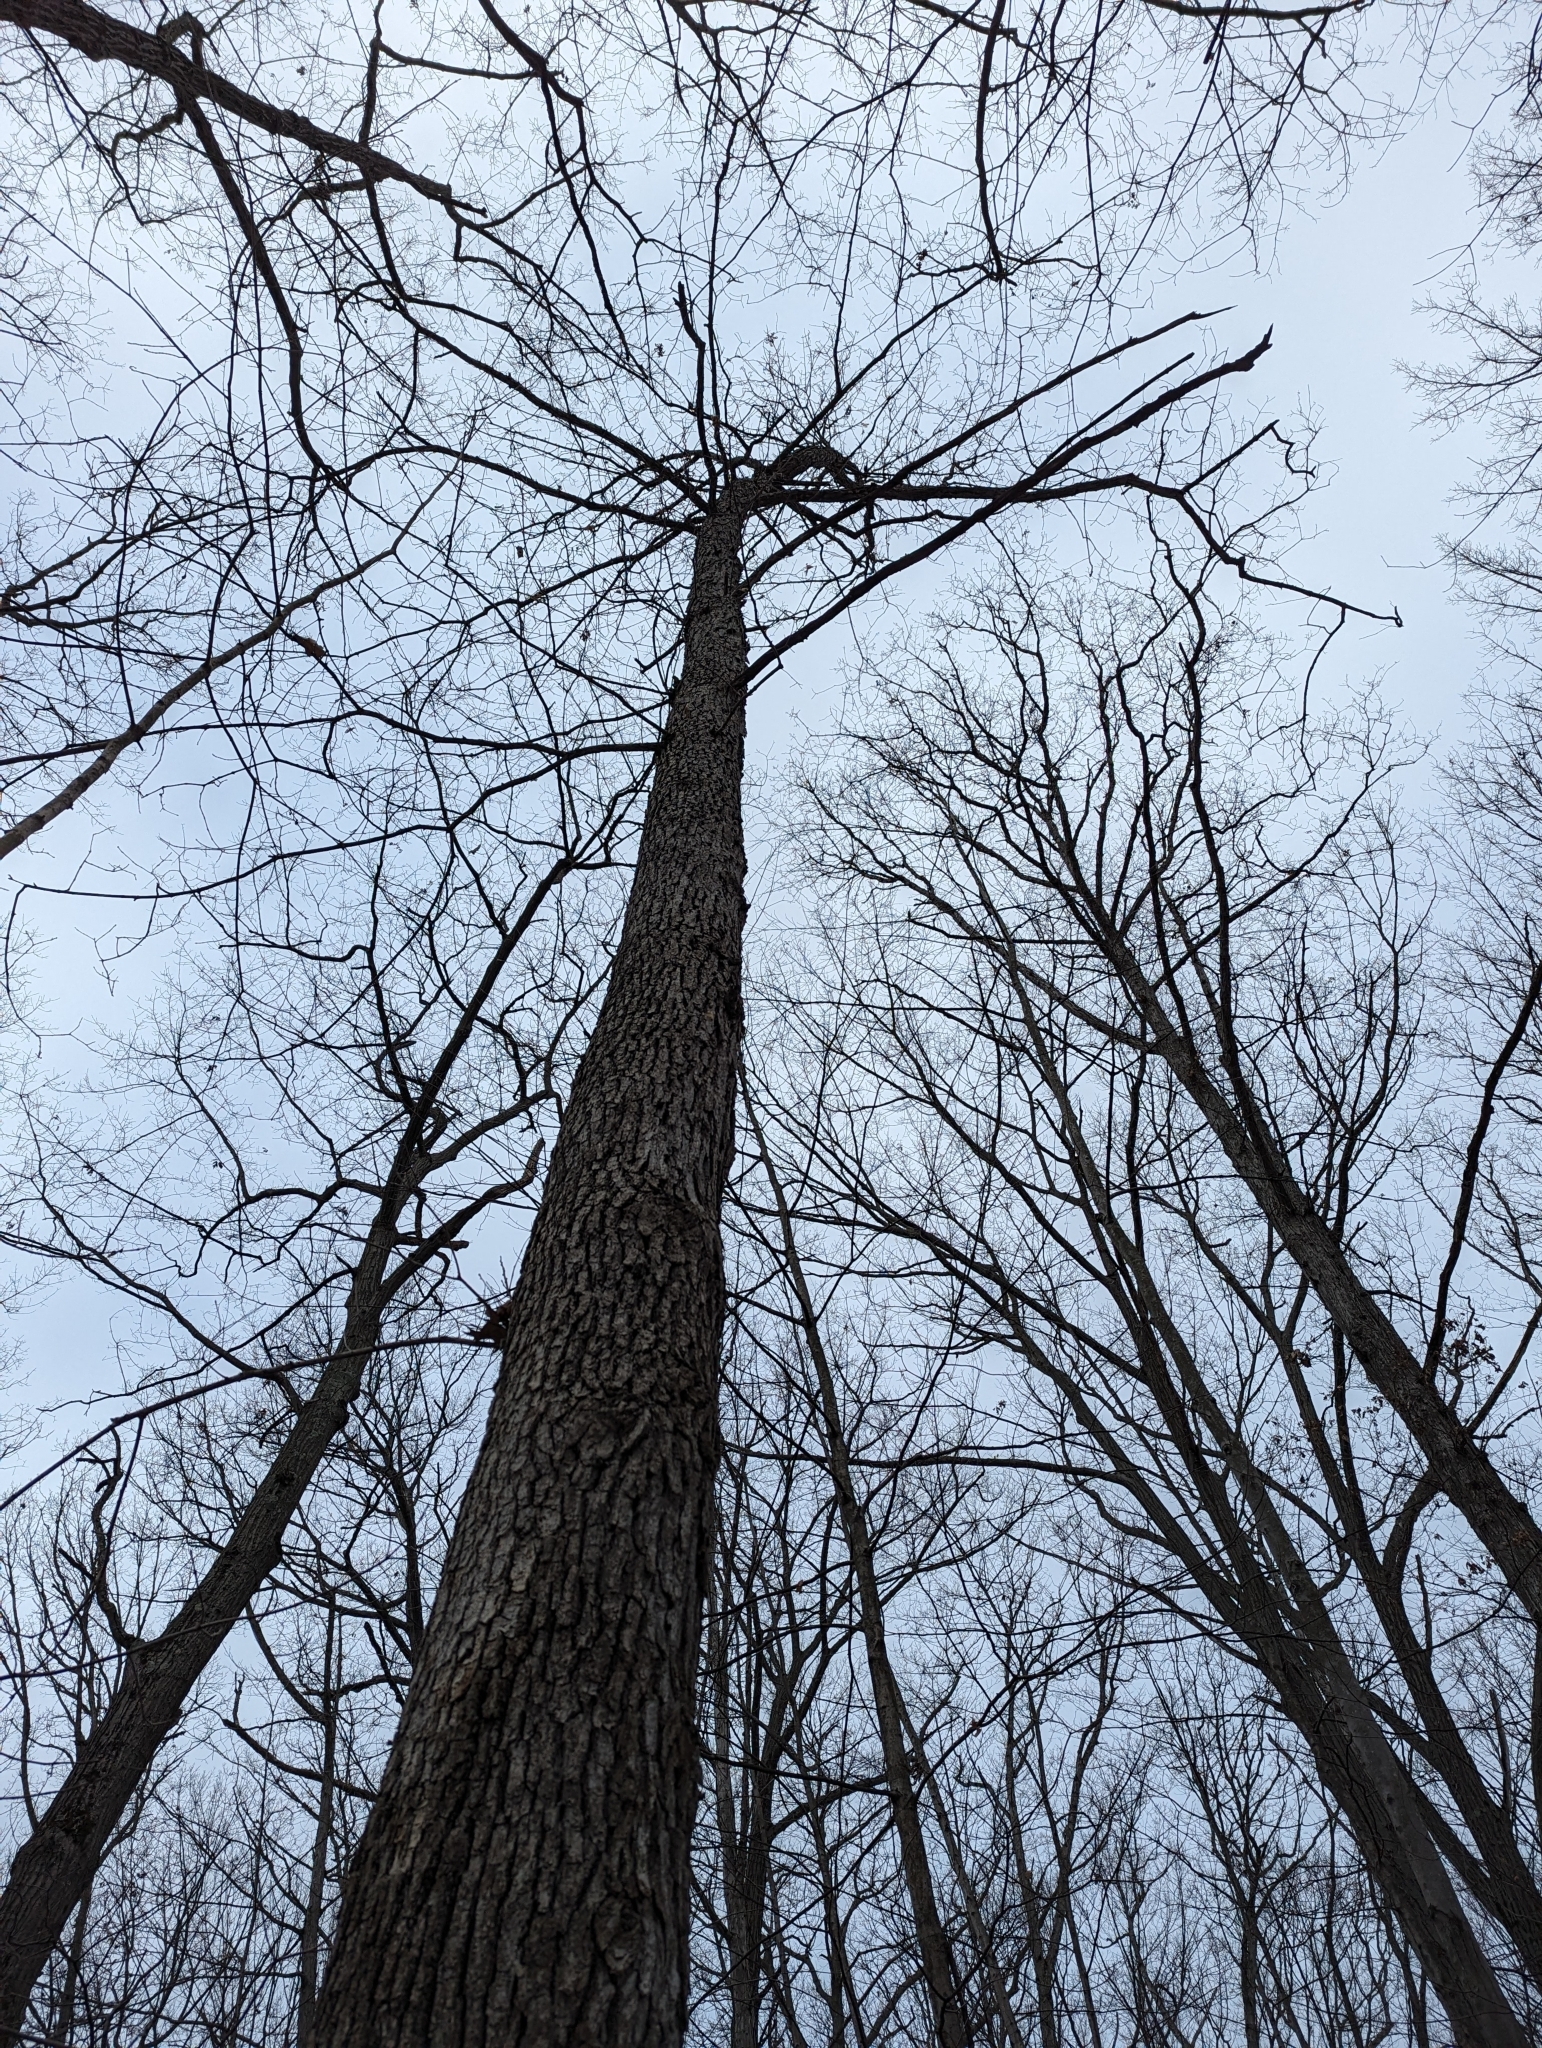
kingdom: Plantae
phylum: Tracheophyta
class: Magnoliopsida
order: Fagales
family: Fagaceae
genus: Quercus
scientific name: Quercus alba
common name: White oak
